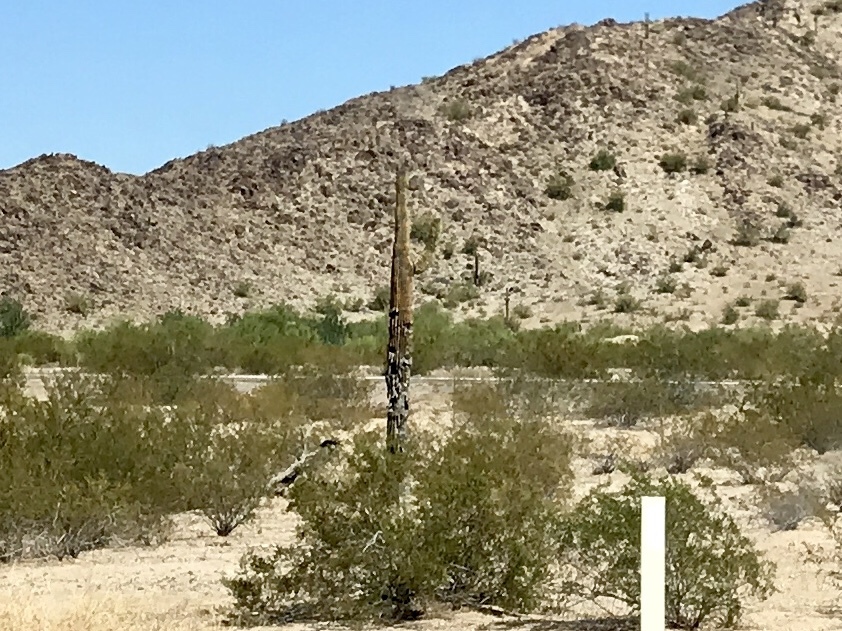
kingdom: Plantae
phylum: Tracheophyta
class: Magnoliopsida
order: Caryophyllales
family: Cactaceae
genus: Carnegiea
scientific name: Carnegiea gigantea
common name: Saguaro
